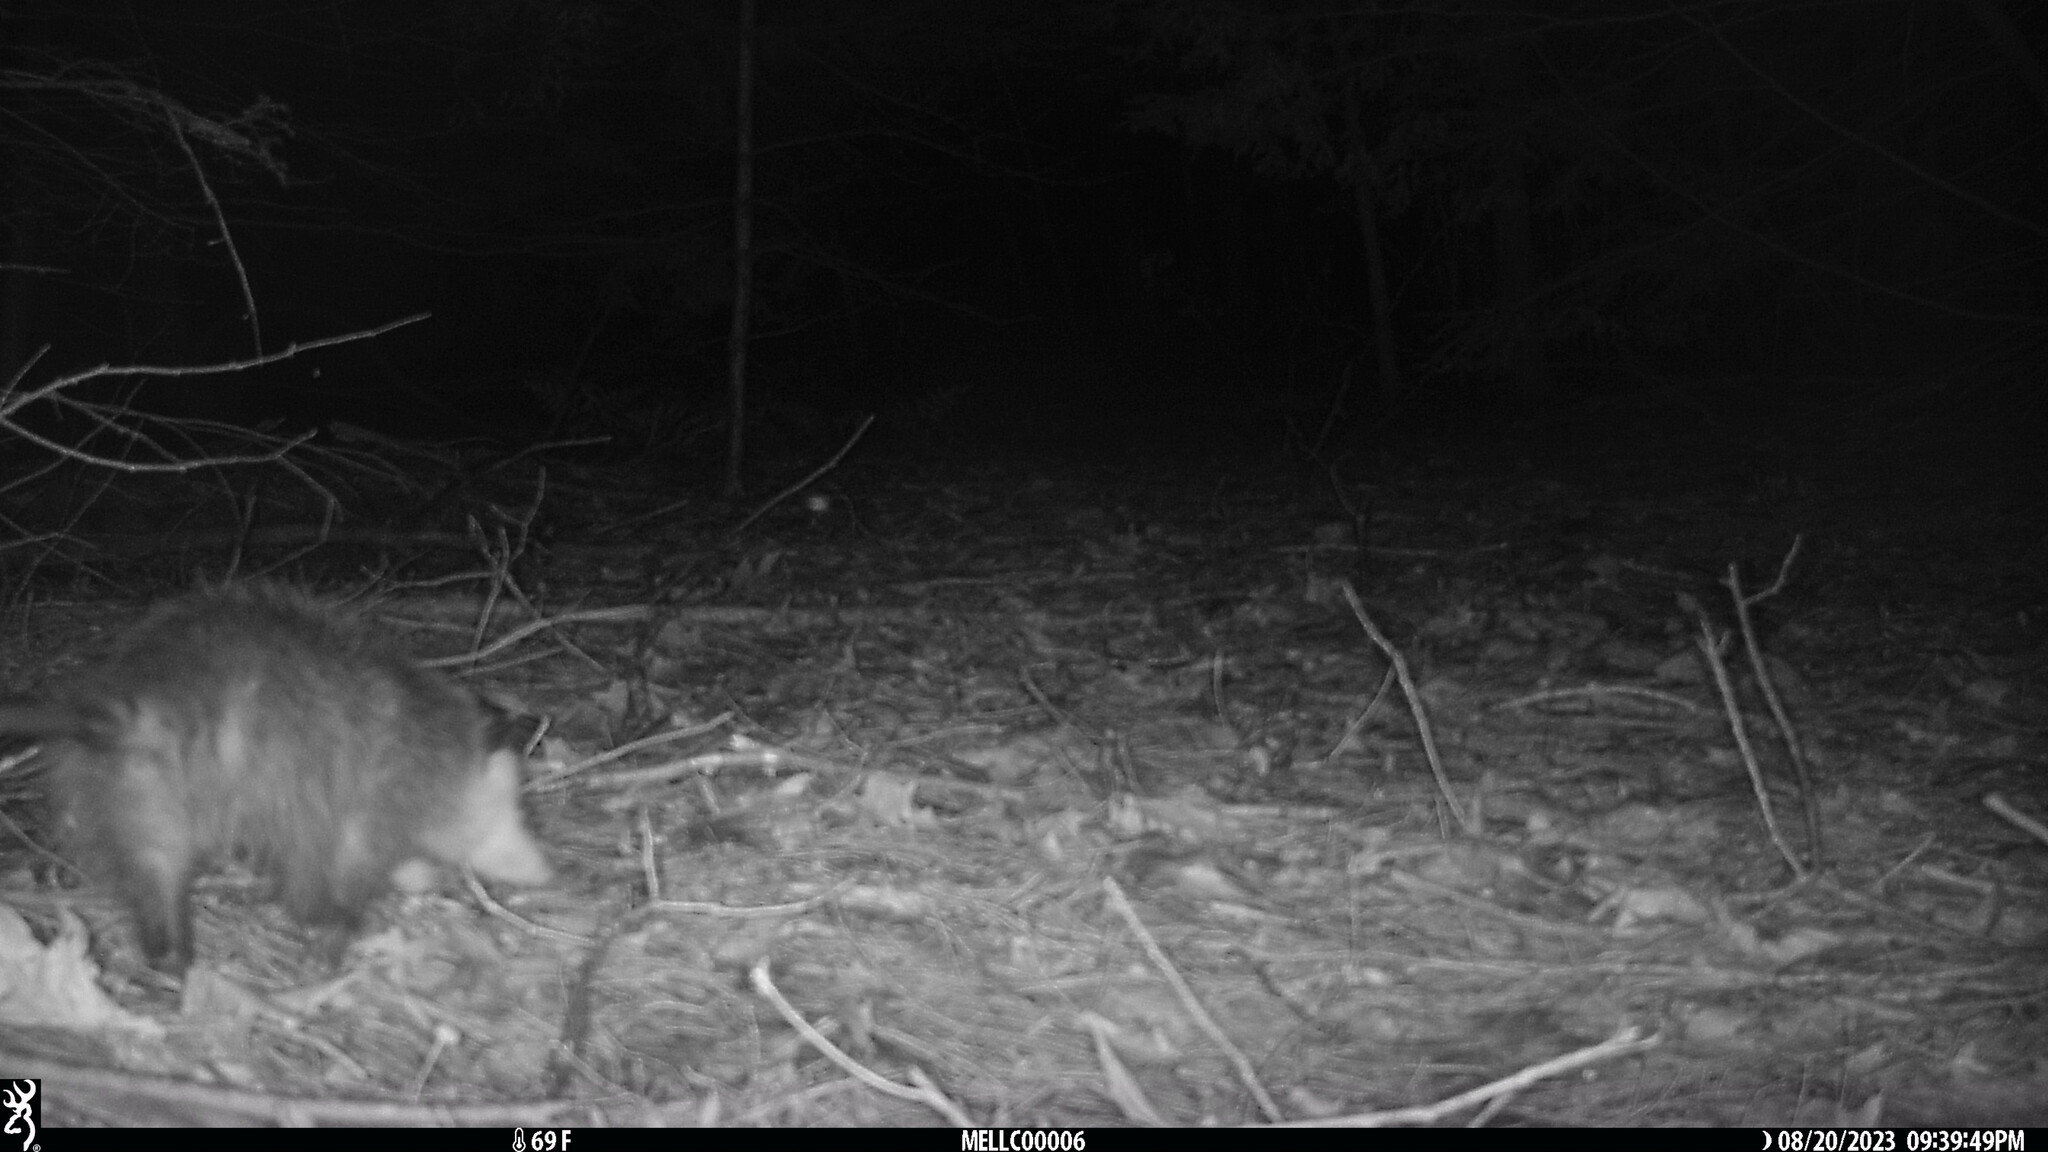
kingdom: Animalia
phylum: Chordata
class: Mammalia
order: Didelphimorphia
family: Didelphidae
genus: Didelphis
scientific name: Didelphis virginiana
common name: Virginia opossum
